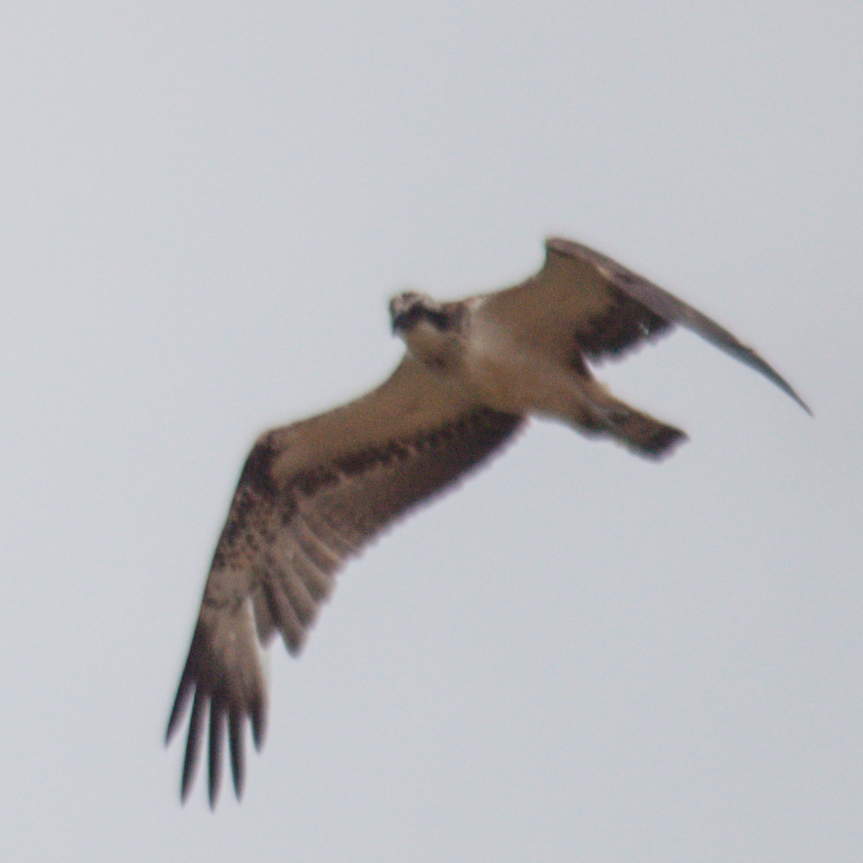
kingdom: Animalia
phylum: Chordata
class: Aves
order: Accipitriformes
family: Pandionidae
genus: Pandion
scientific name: Pandion haliaetus
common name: Osprey
